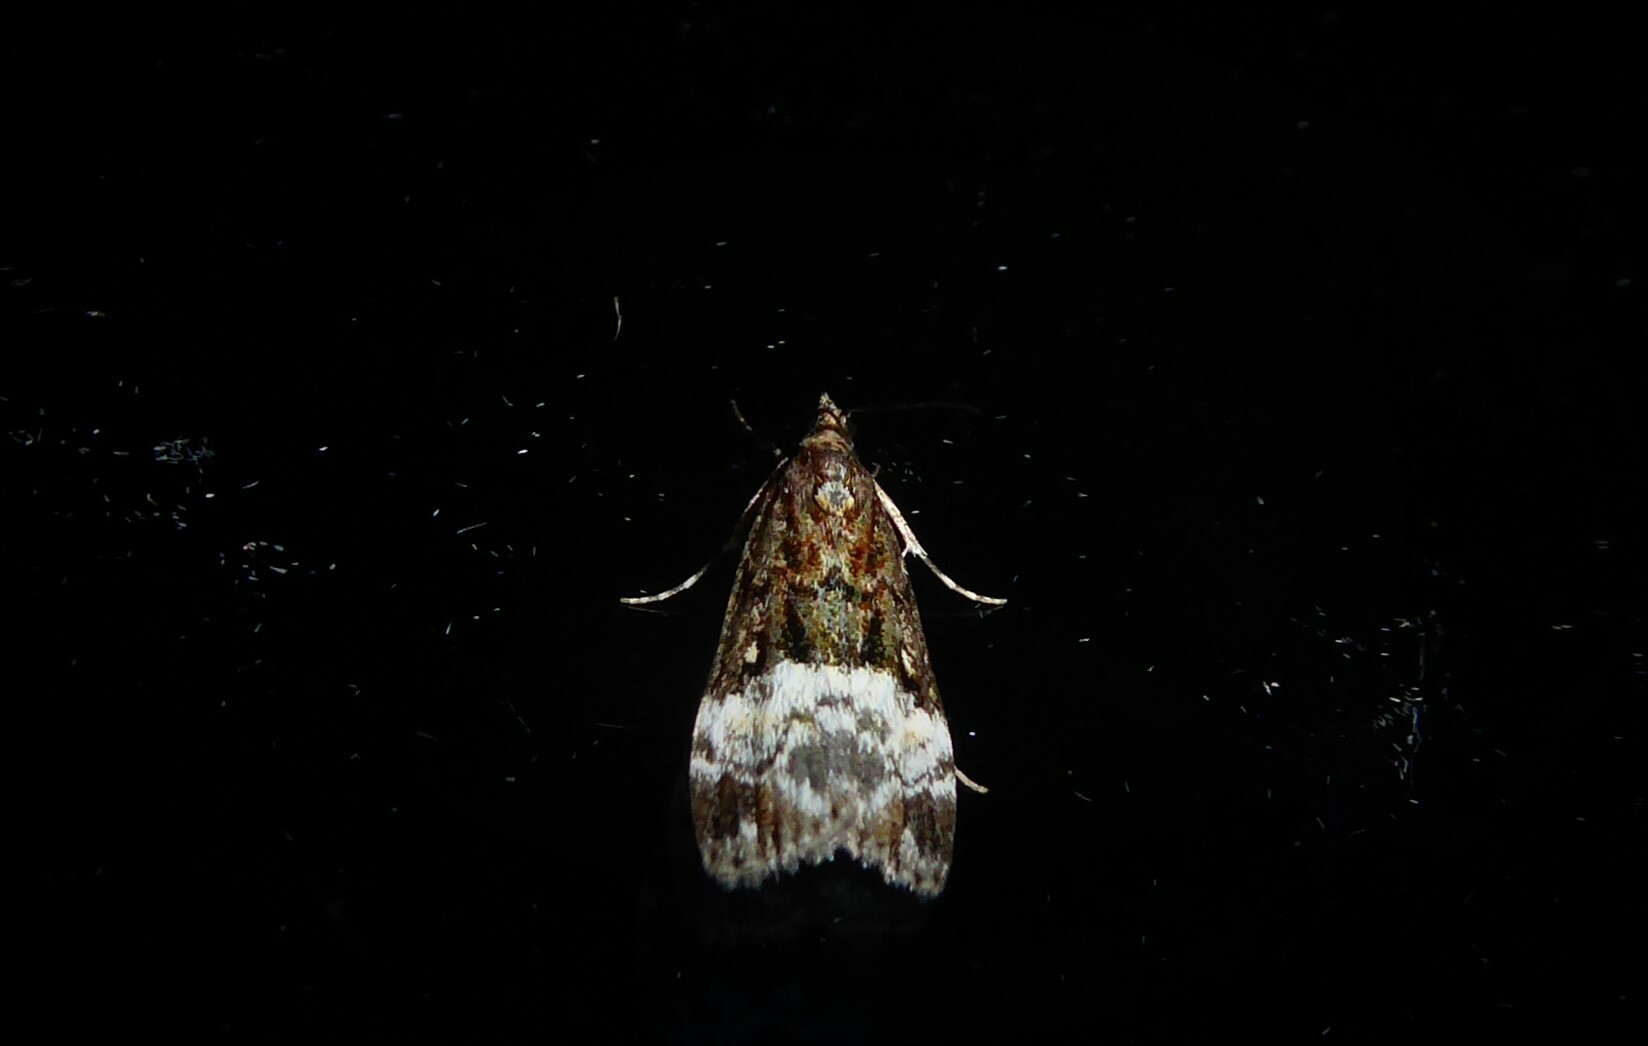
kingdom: Animalia
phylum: Arthropoda
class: Insecta
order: Lepidoptera
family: Crambidae
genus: Scoparia
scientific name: Scoparia minusculalis
